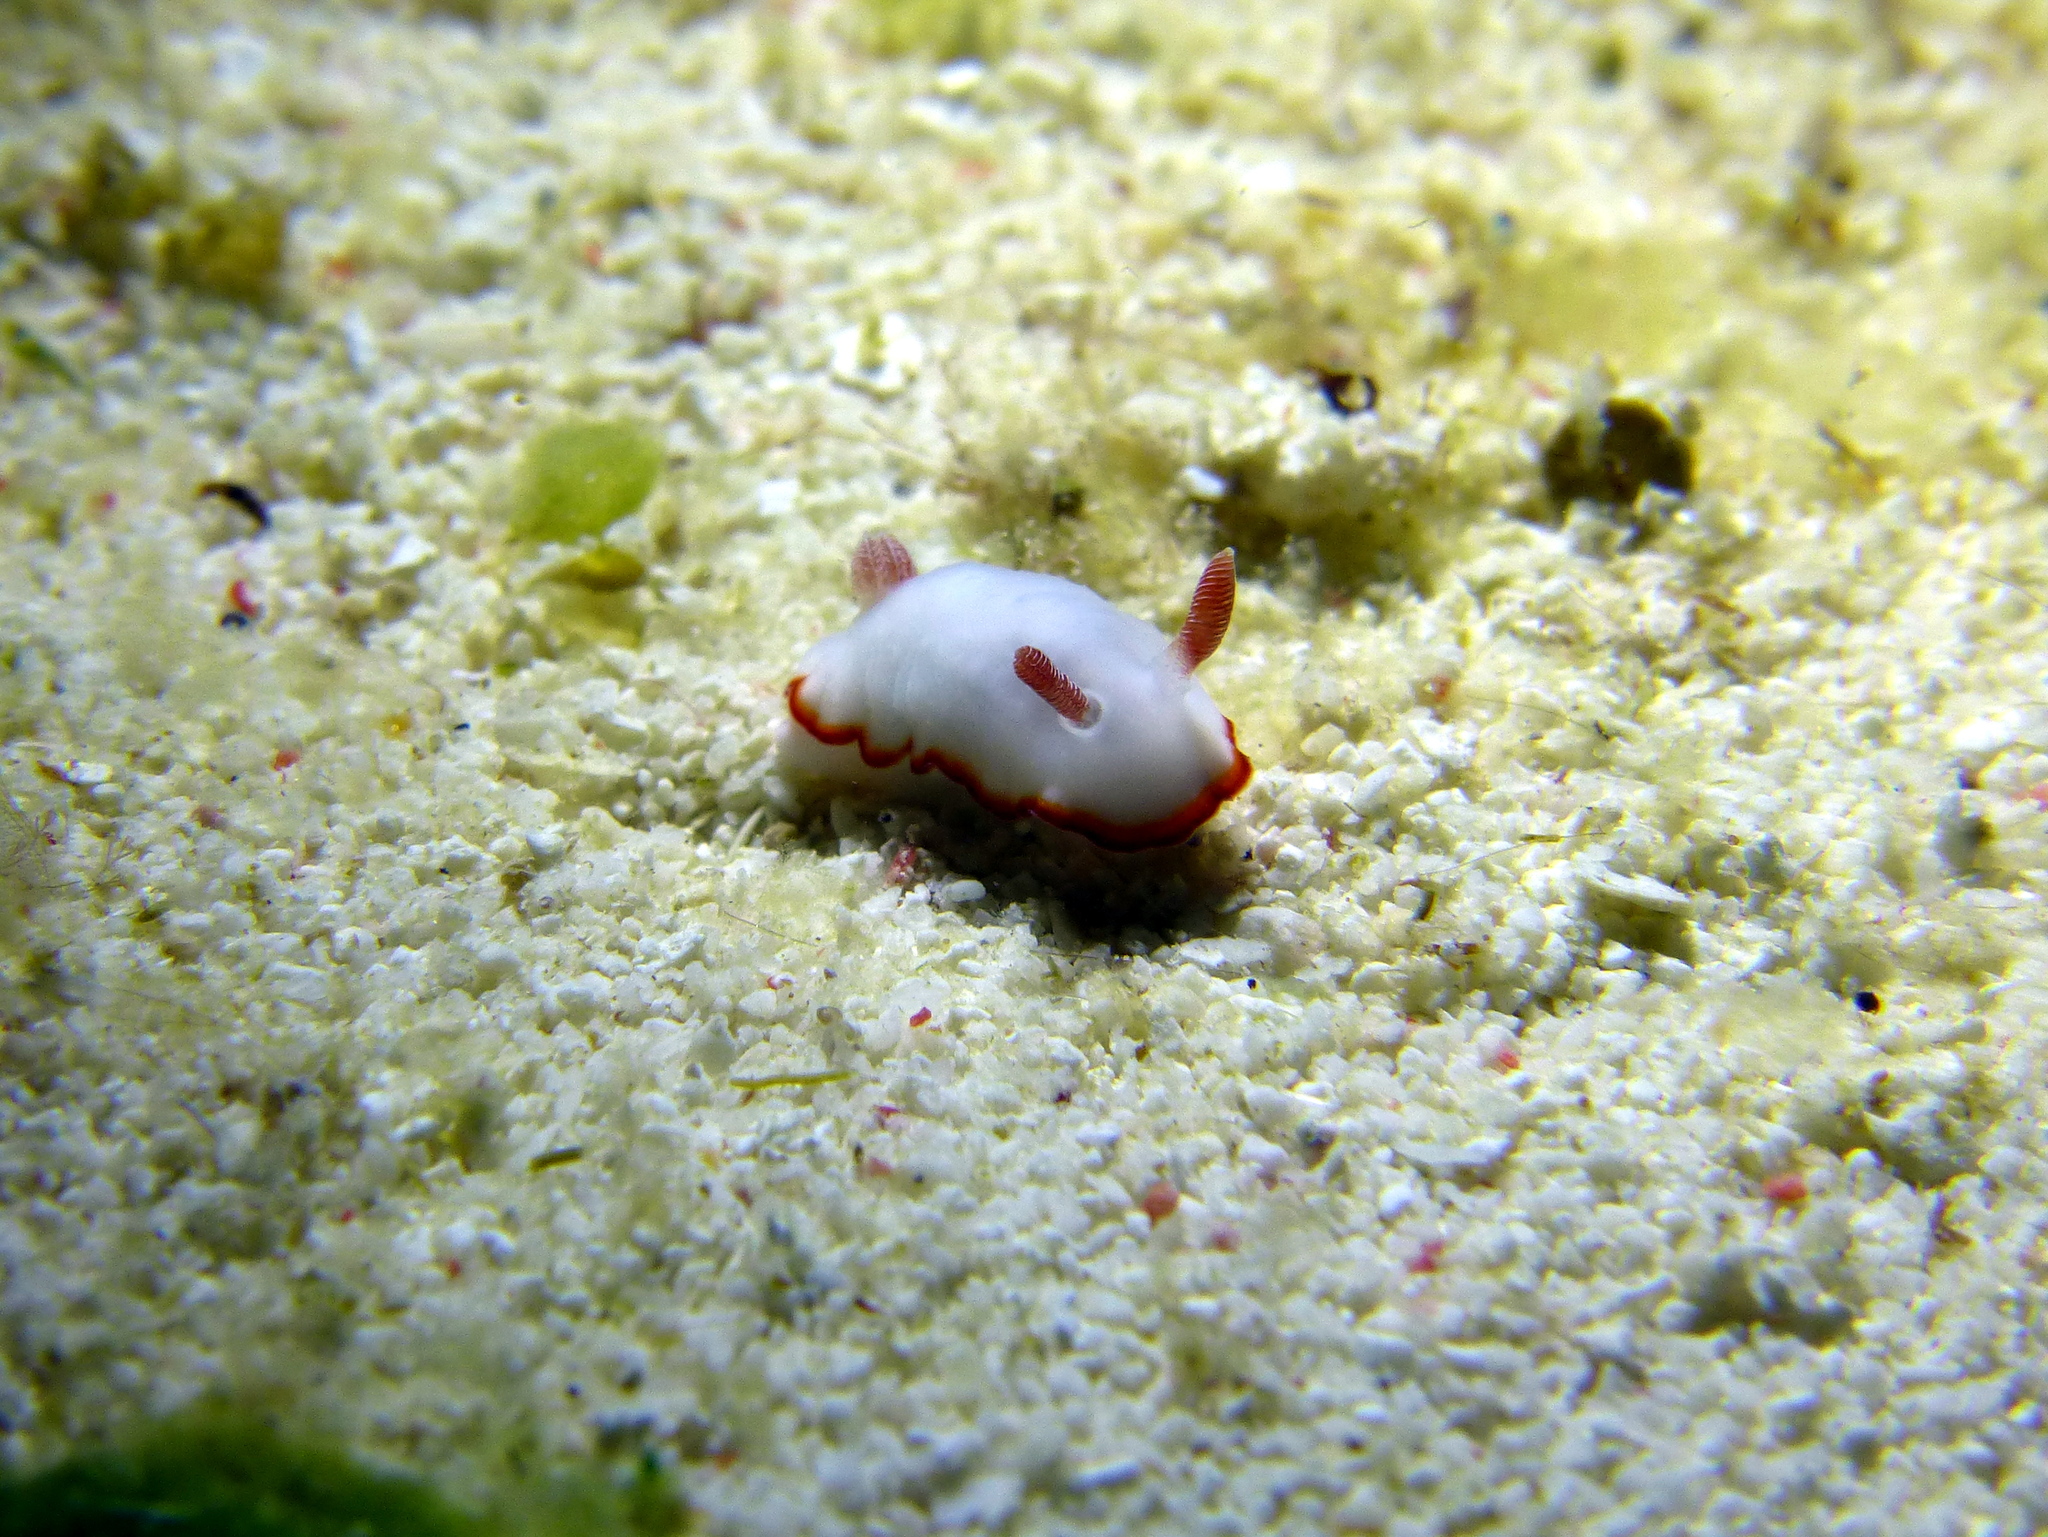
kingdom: Animalia
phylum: Mollusca
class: Gastropoda
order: Nudibranchia
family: Chromodorididae
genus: Goniobranchus
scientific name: Goniobranchus verrieri
